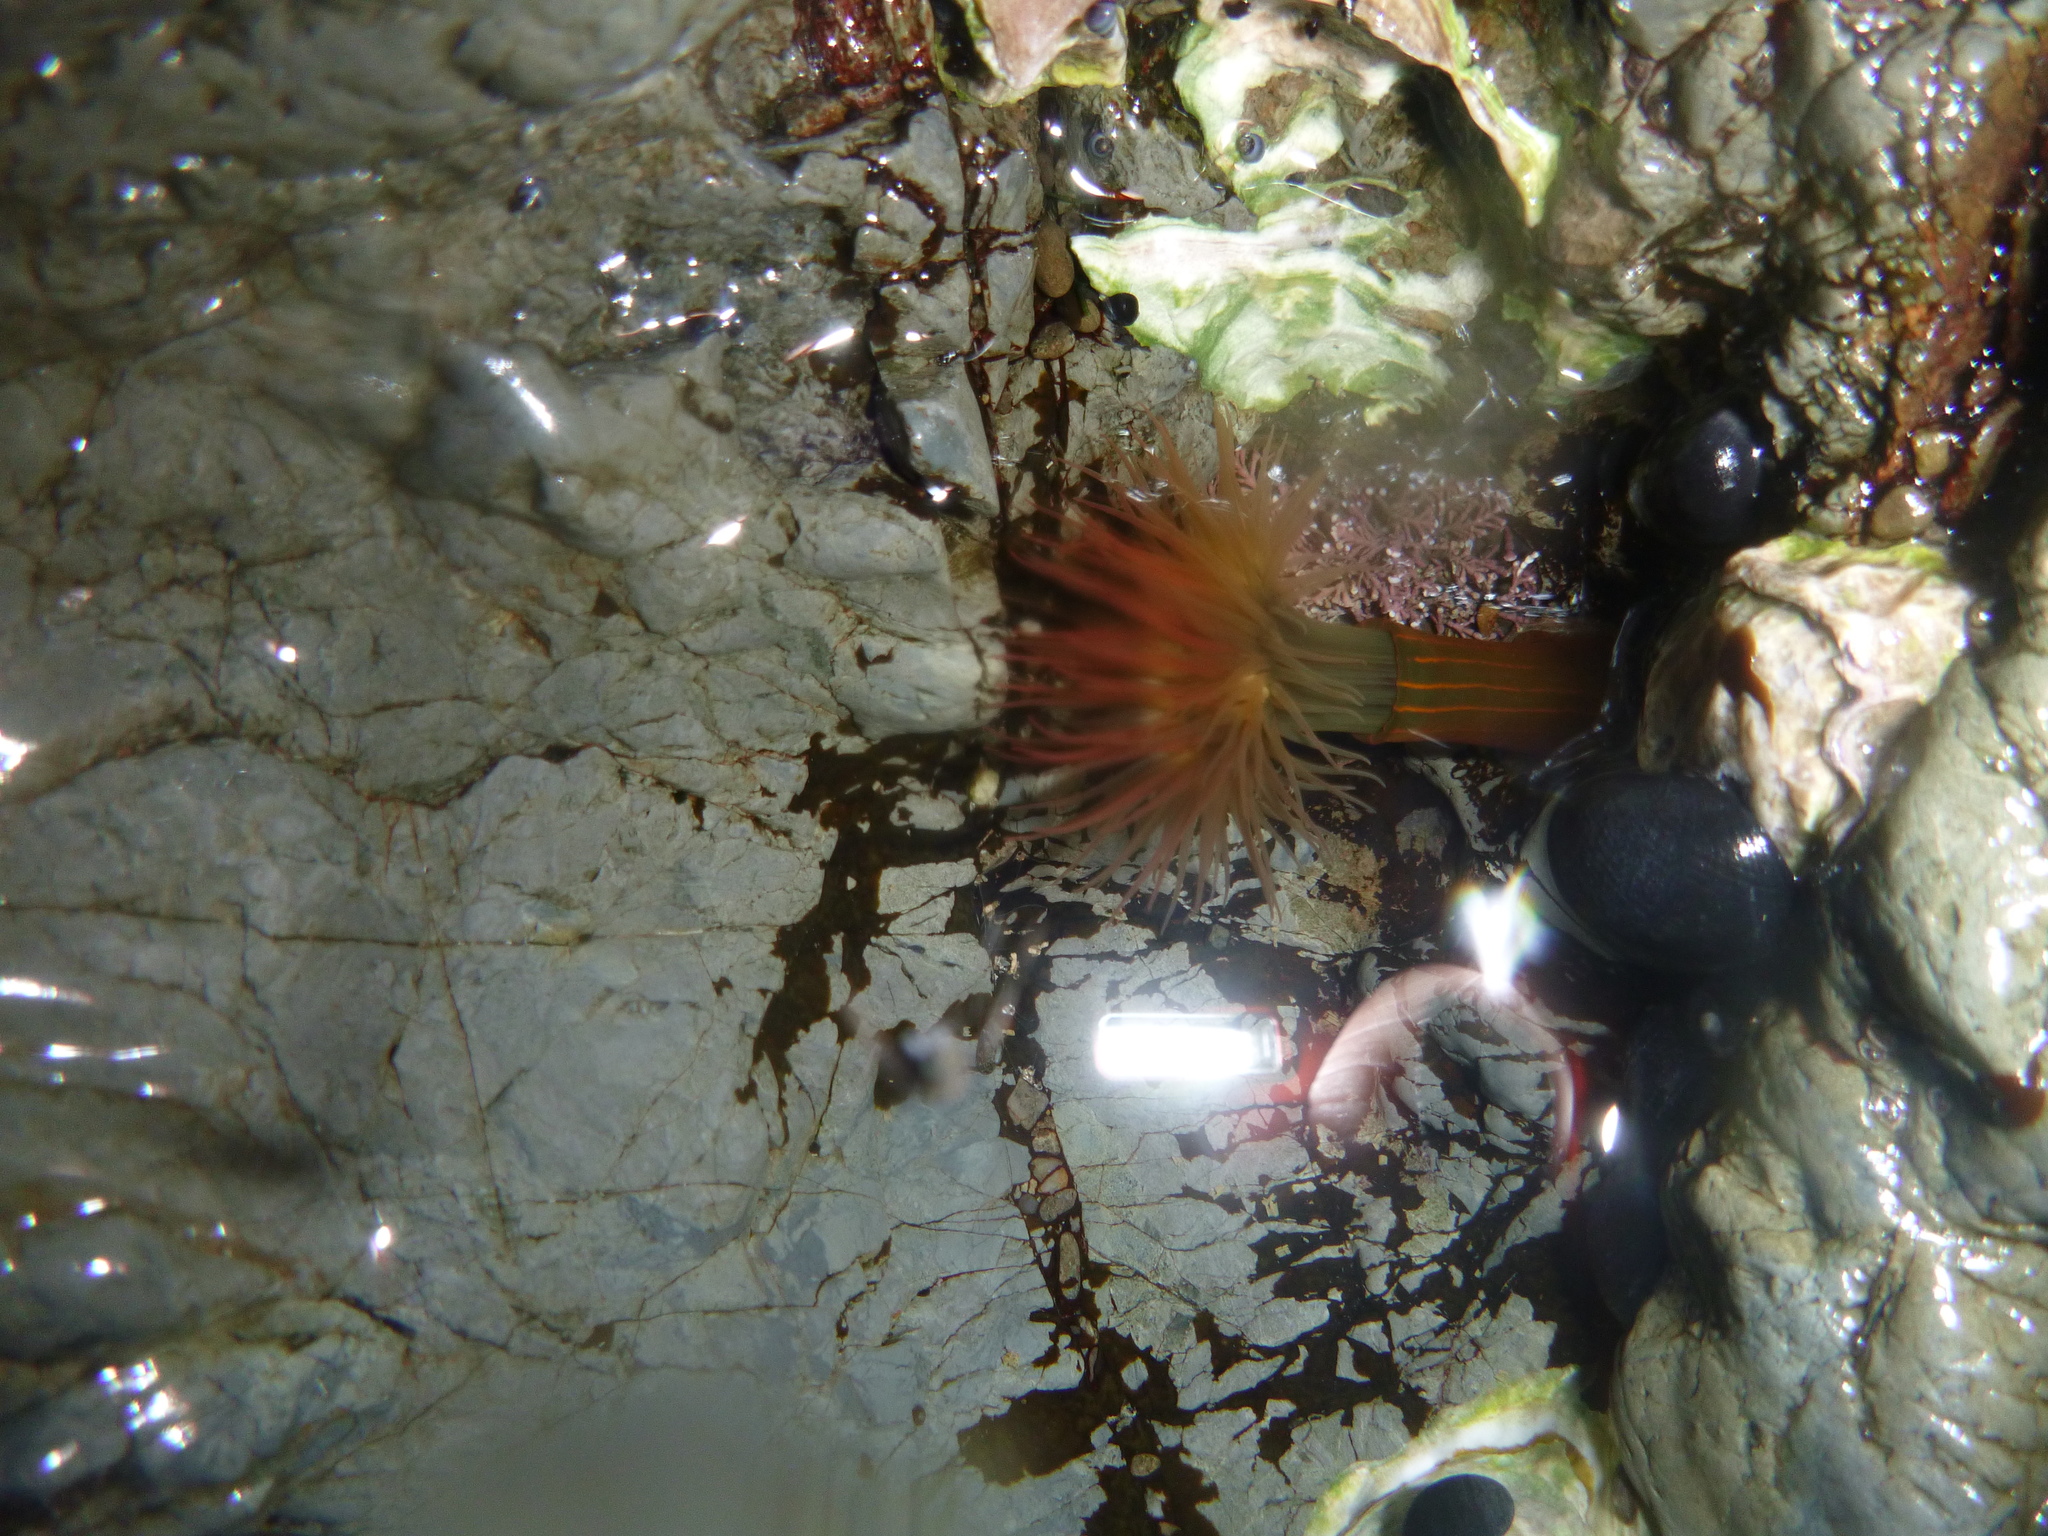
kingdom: Animalia
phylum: Cnidaria
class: Anthozoa
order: Actiniaria
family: Diadumenidae
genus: Diadumene
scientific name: Diadumene lineata
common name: Orange-striped anemone
